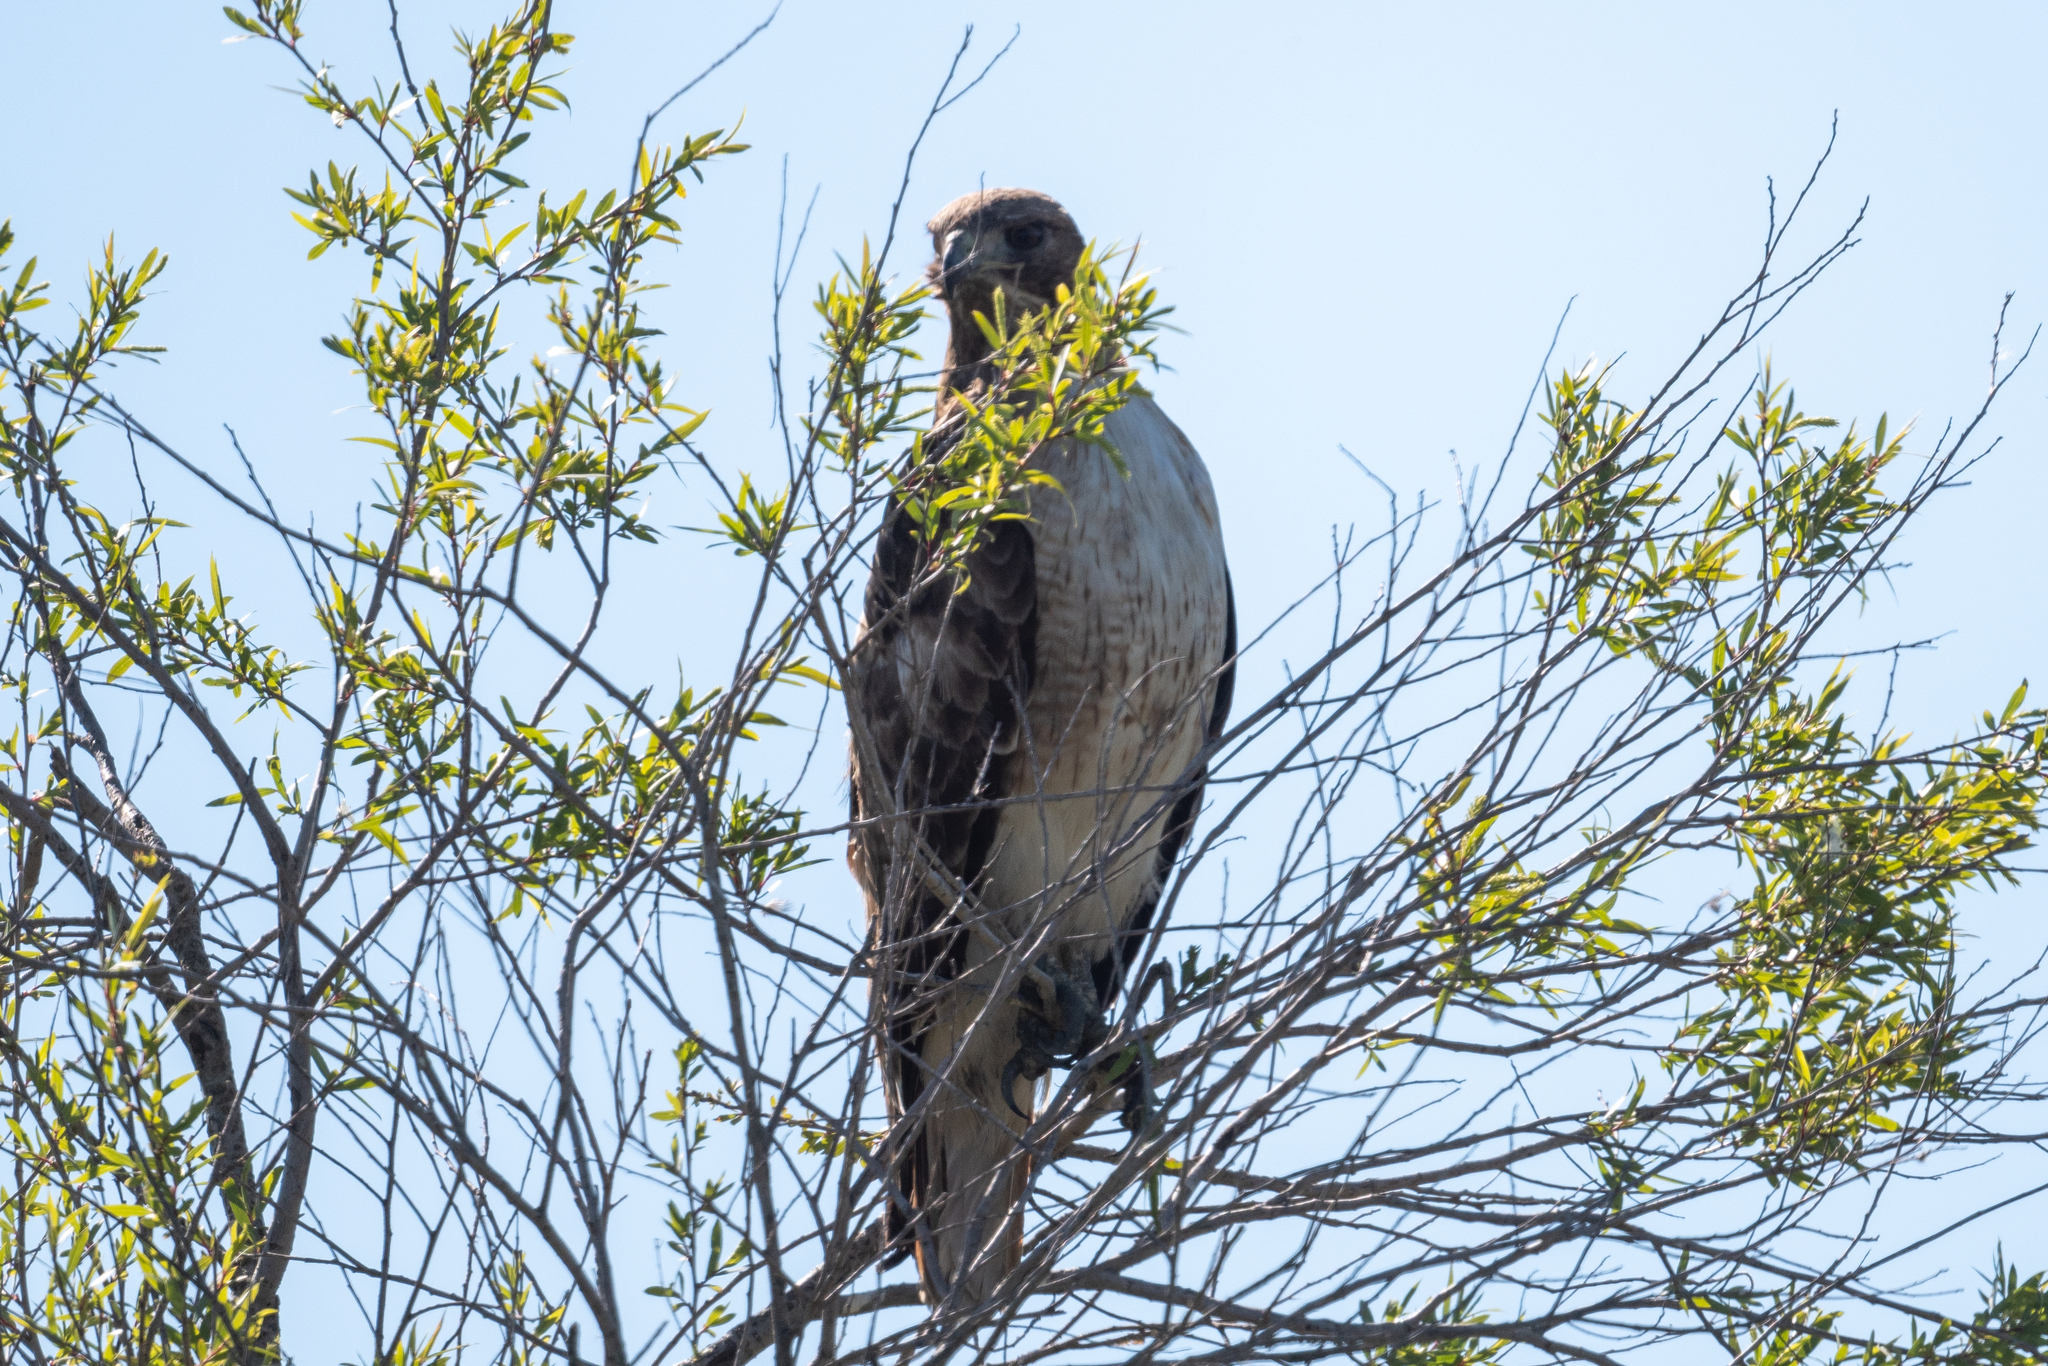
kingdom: Animalia
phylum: Chordata
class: Aves
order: Accipitriformes
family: Accipitridae
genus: Buteo
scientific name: Buteo jamaicensis
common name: Red-tailed hawk
